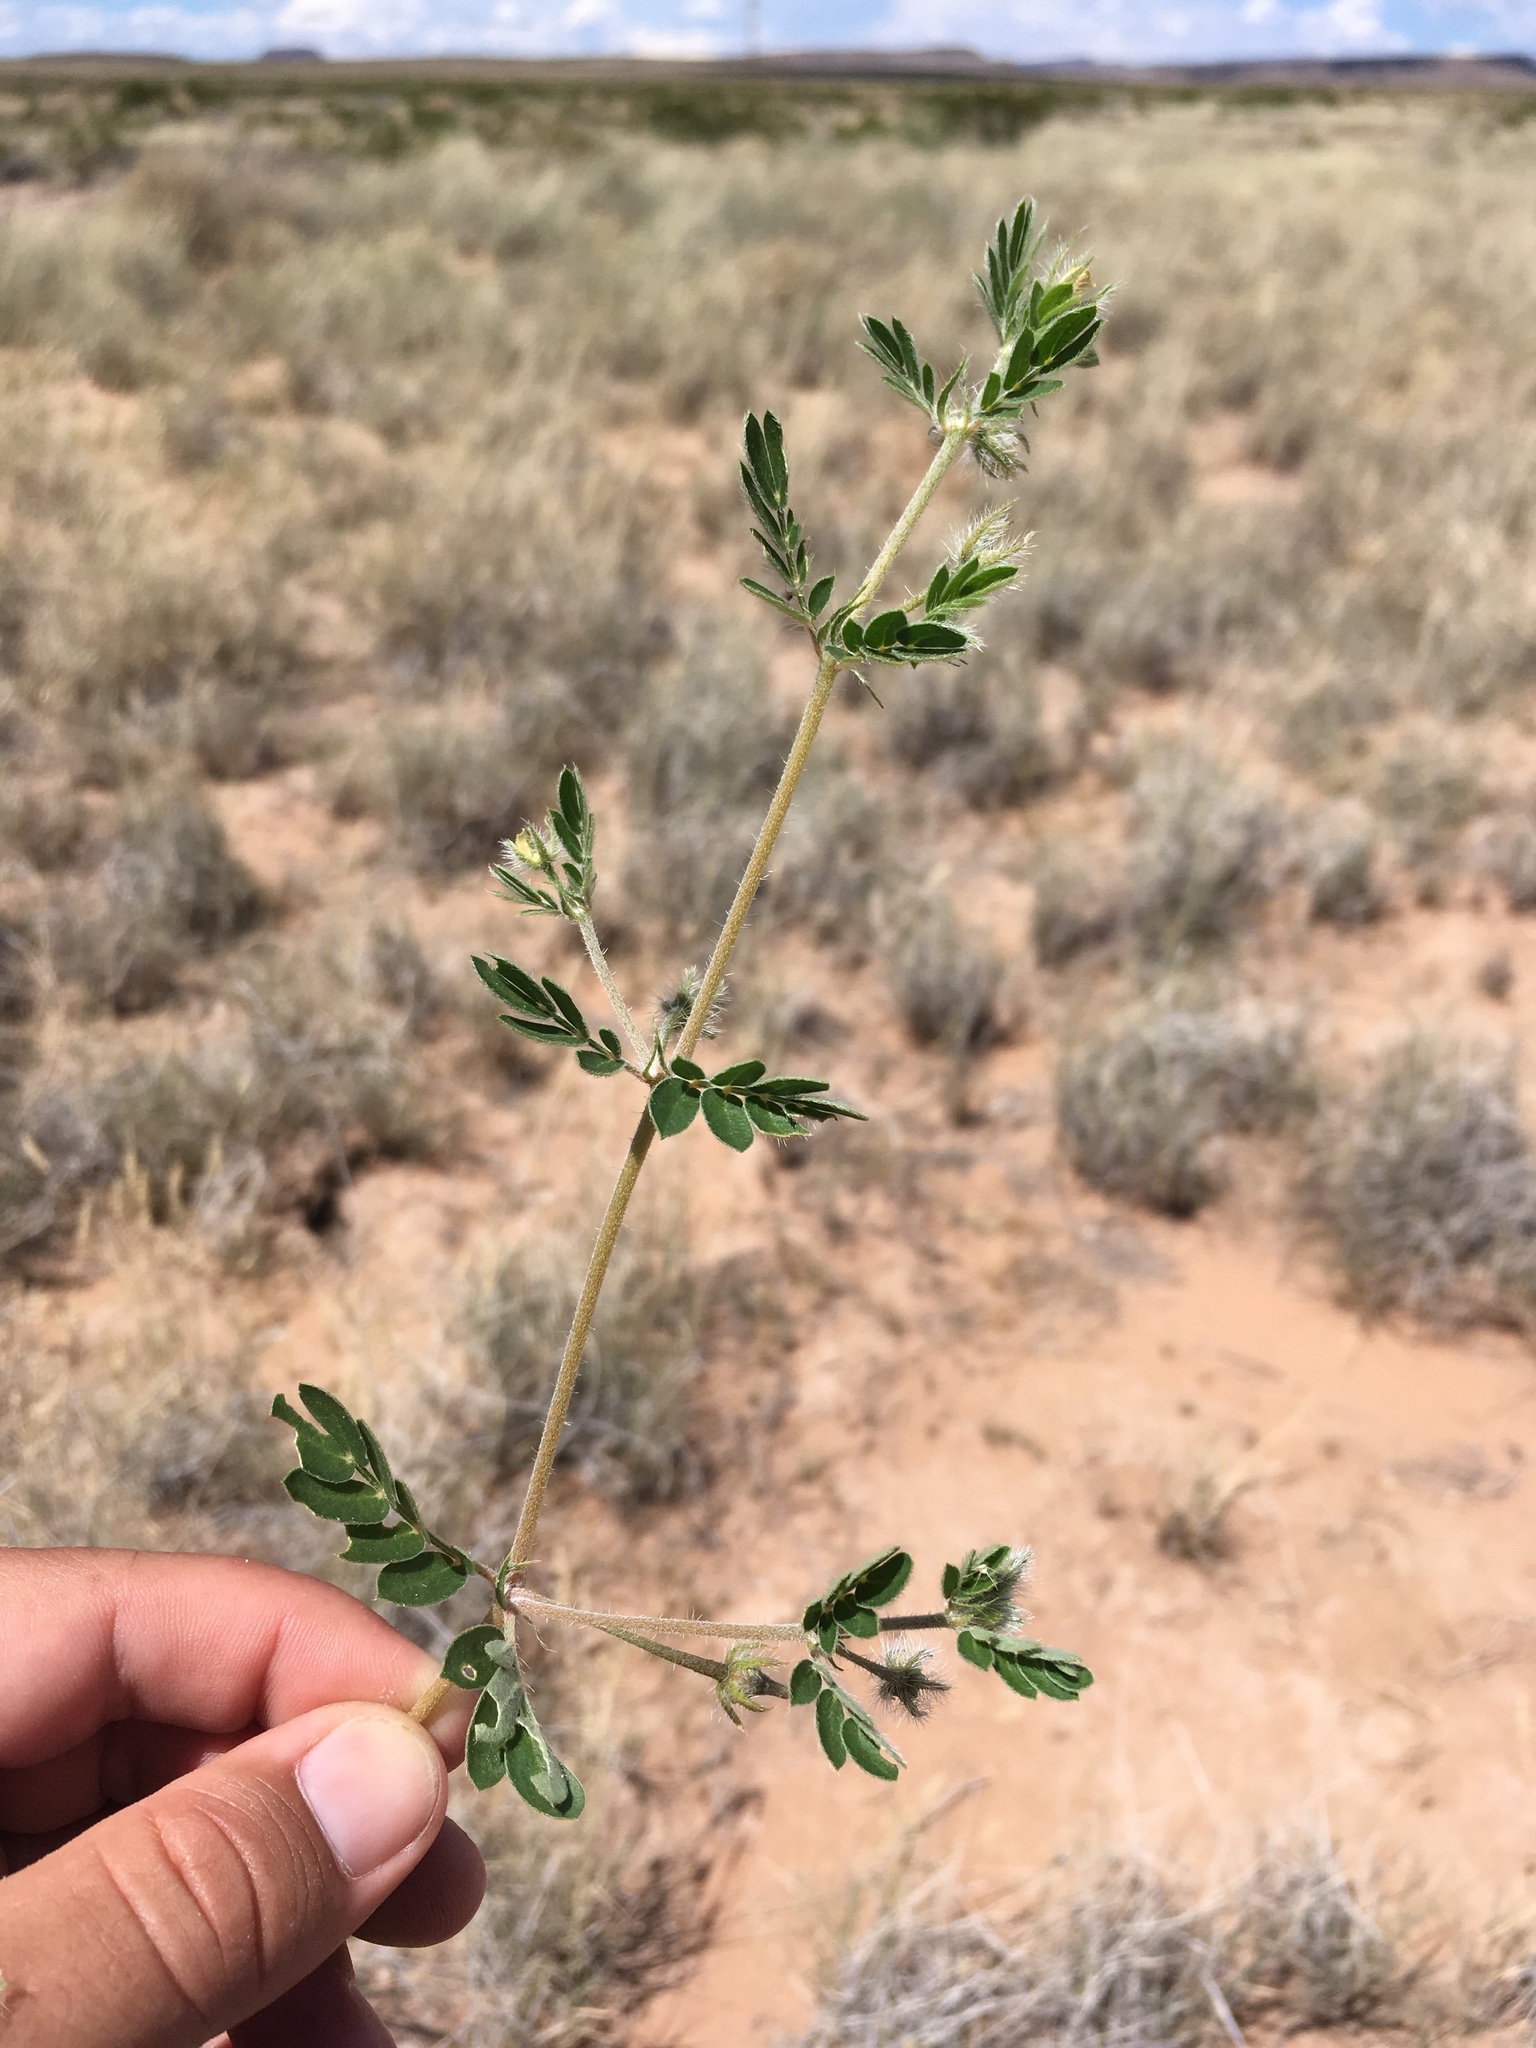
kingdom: Plantae
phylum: Tracheophyta
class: Magnoliopsida
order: Zygophyllales
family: Zygophyllaceae
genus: Kallstroemia
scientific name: Kallstroemia parviflora
